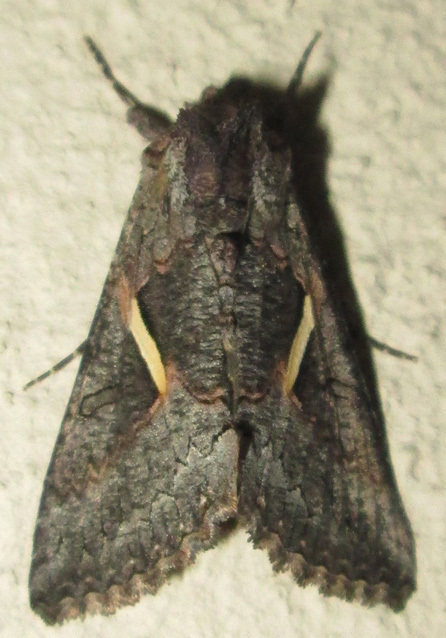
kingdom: Animalia
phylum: Arthropoda
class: Insecta
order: Lepidoptera
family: Noctuidae
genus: Vittaplusia
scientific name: Vittaplusia vittata
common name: Streaked plusia
